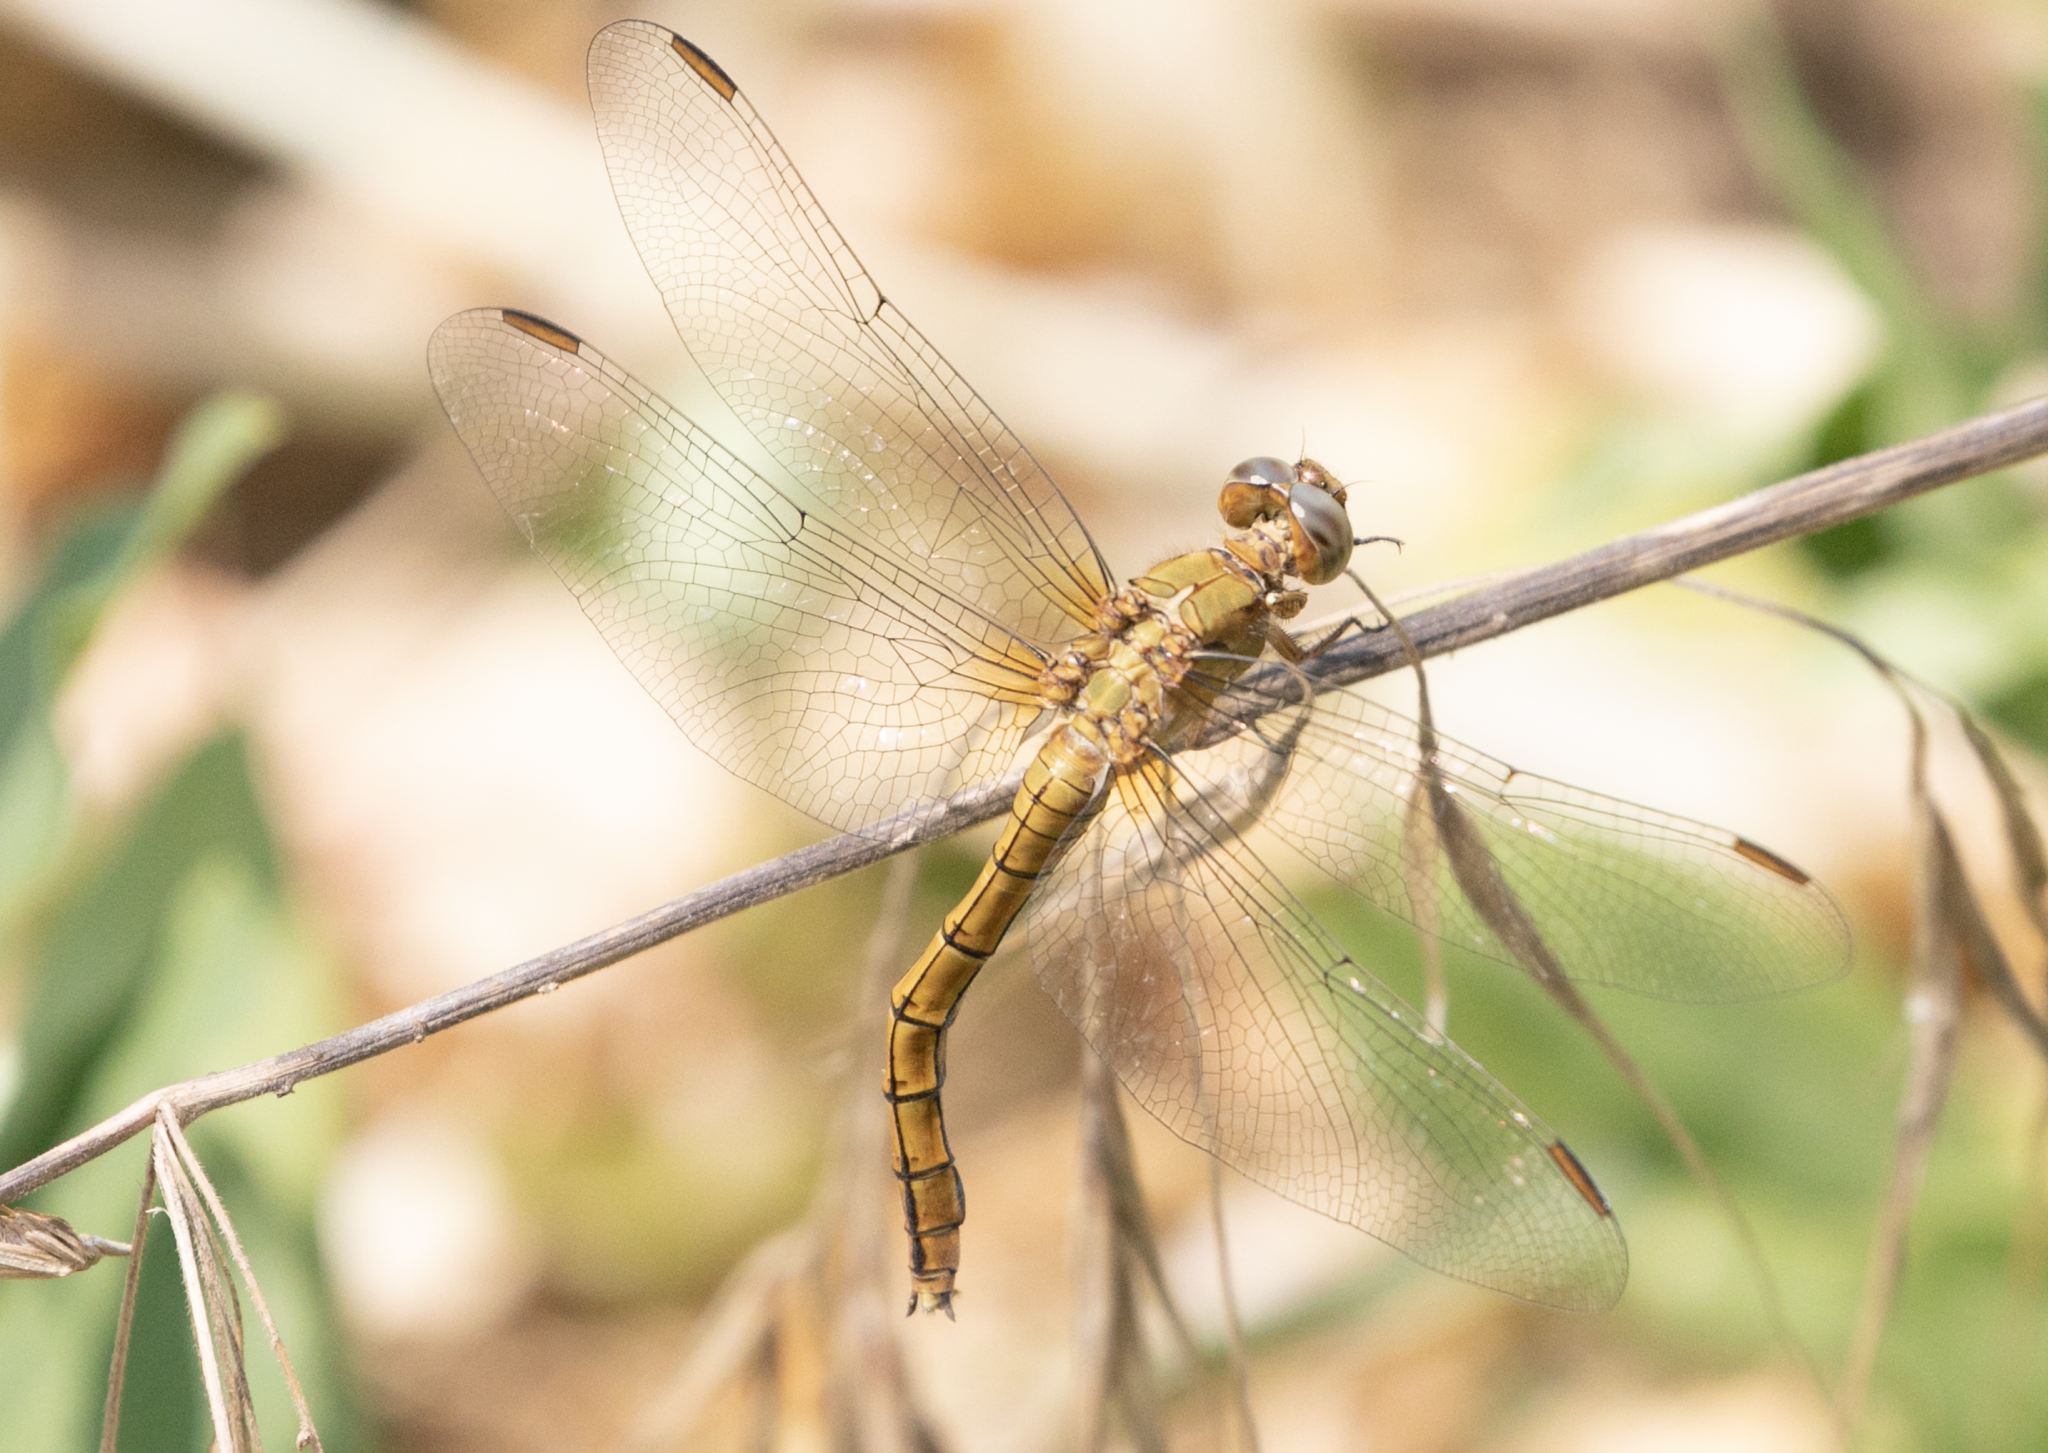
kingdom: Animalia
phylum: Arthropoda
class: Insecta
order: Odonata
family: Libellulidae
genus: Orthetrum
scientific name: Orthetrum coerulescens
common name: Keeled skimmer
